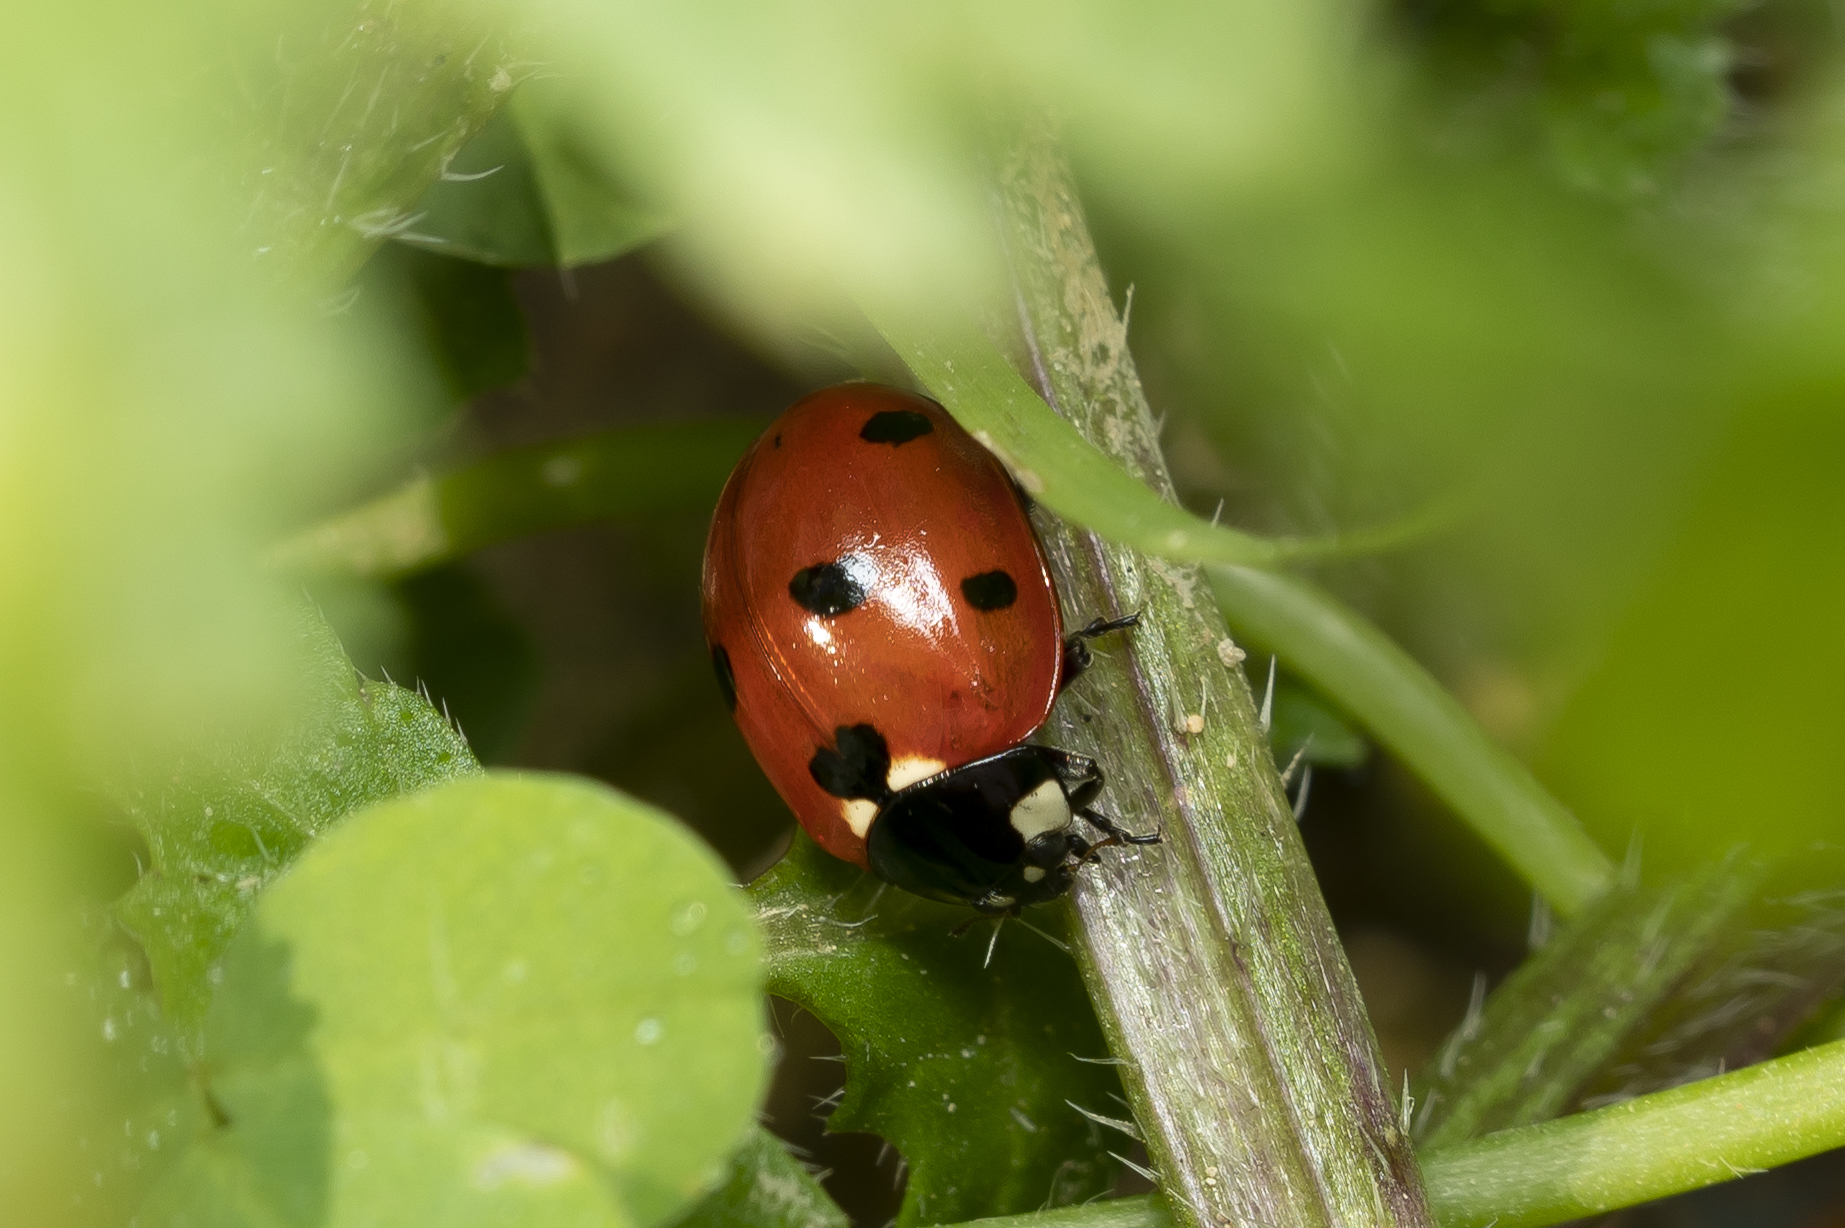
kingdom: Animalia
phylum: Arthropoda
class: Insecta
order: Coleoptera
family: Coccinellidae
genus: Coccinella
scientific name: Coccinella septempunctata
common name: Sevenspotted lady beetle
